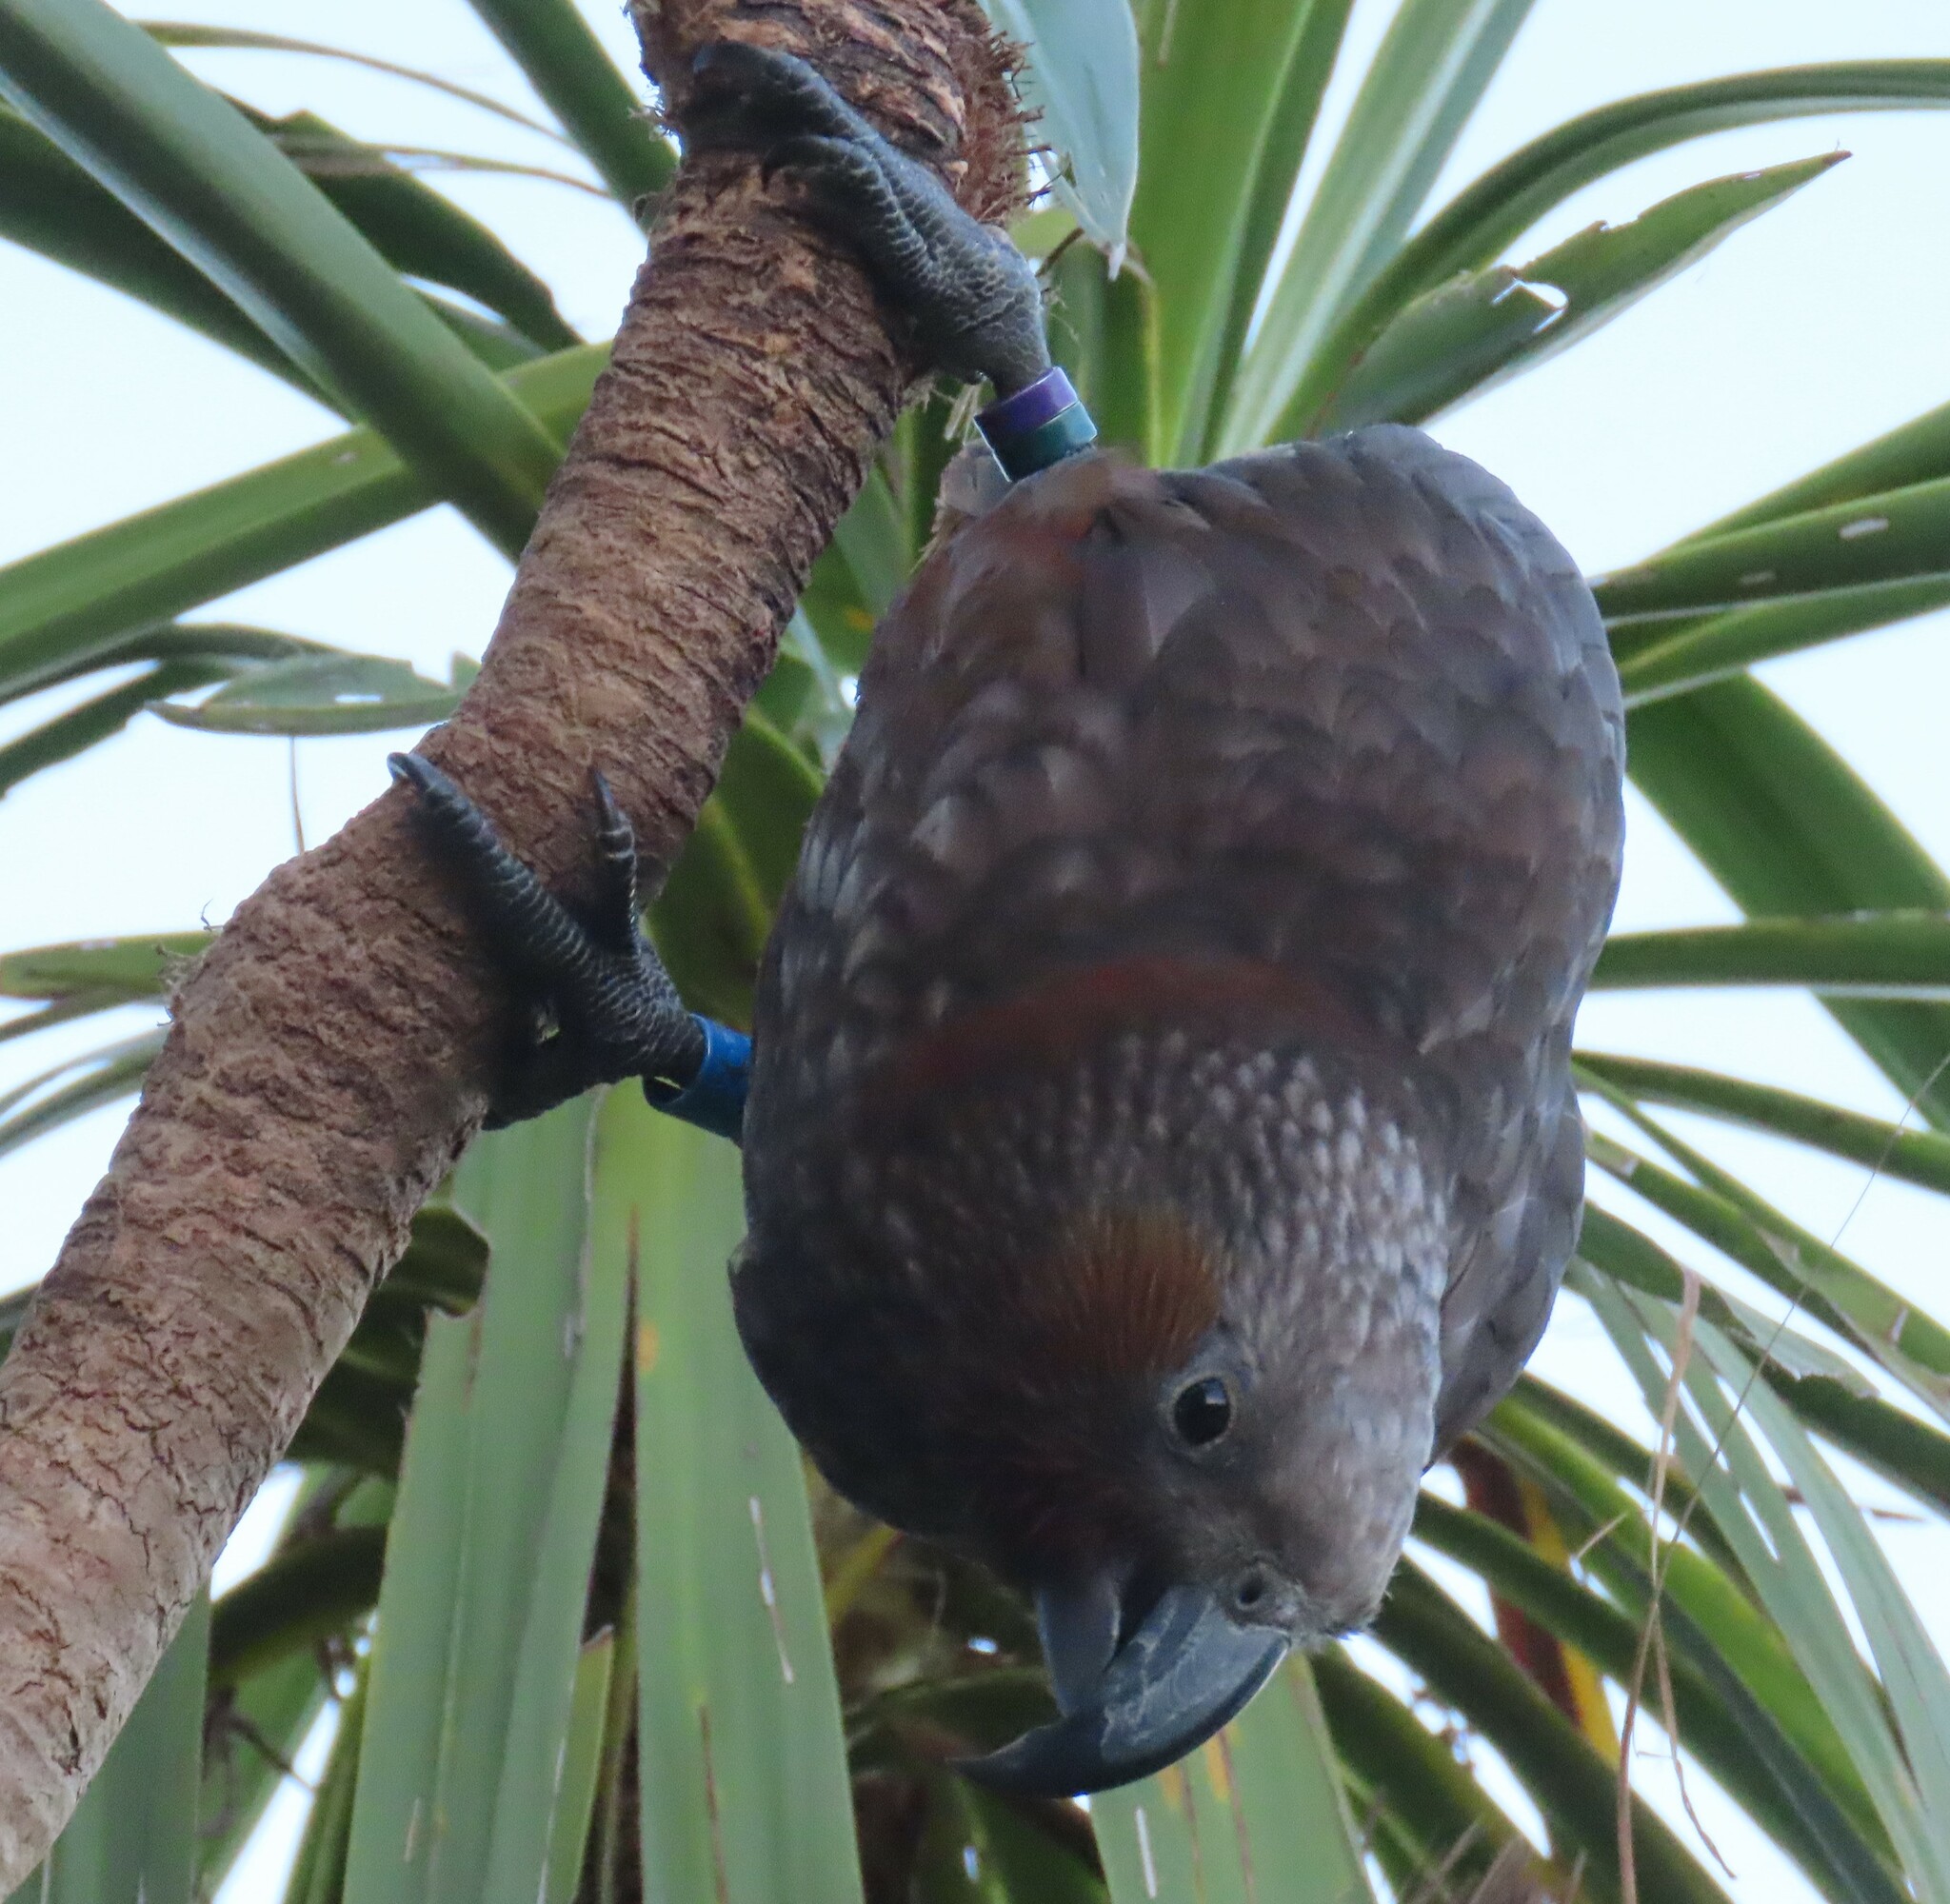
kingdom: Animalia
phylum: Chordata
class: Aves
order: Psittaciformes
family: Psittacidae
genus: Nestor
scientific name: Nestor meridionalis
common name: New zealand kaka
